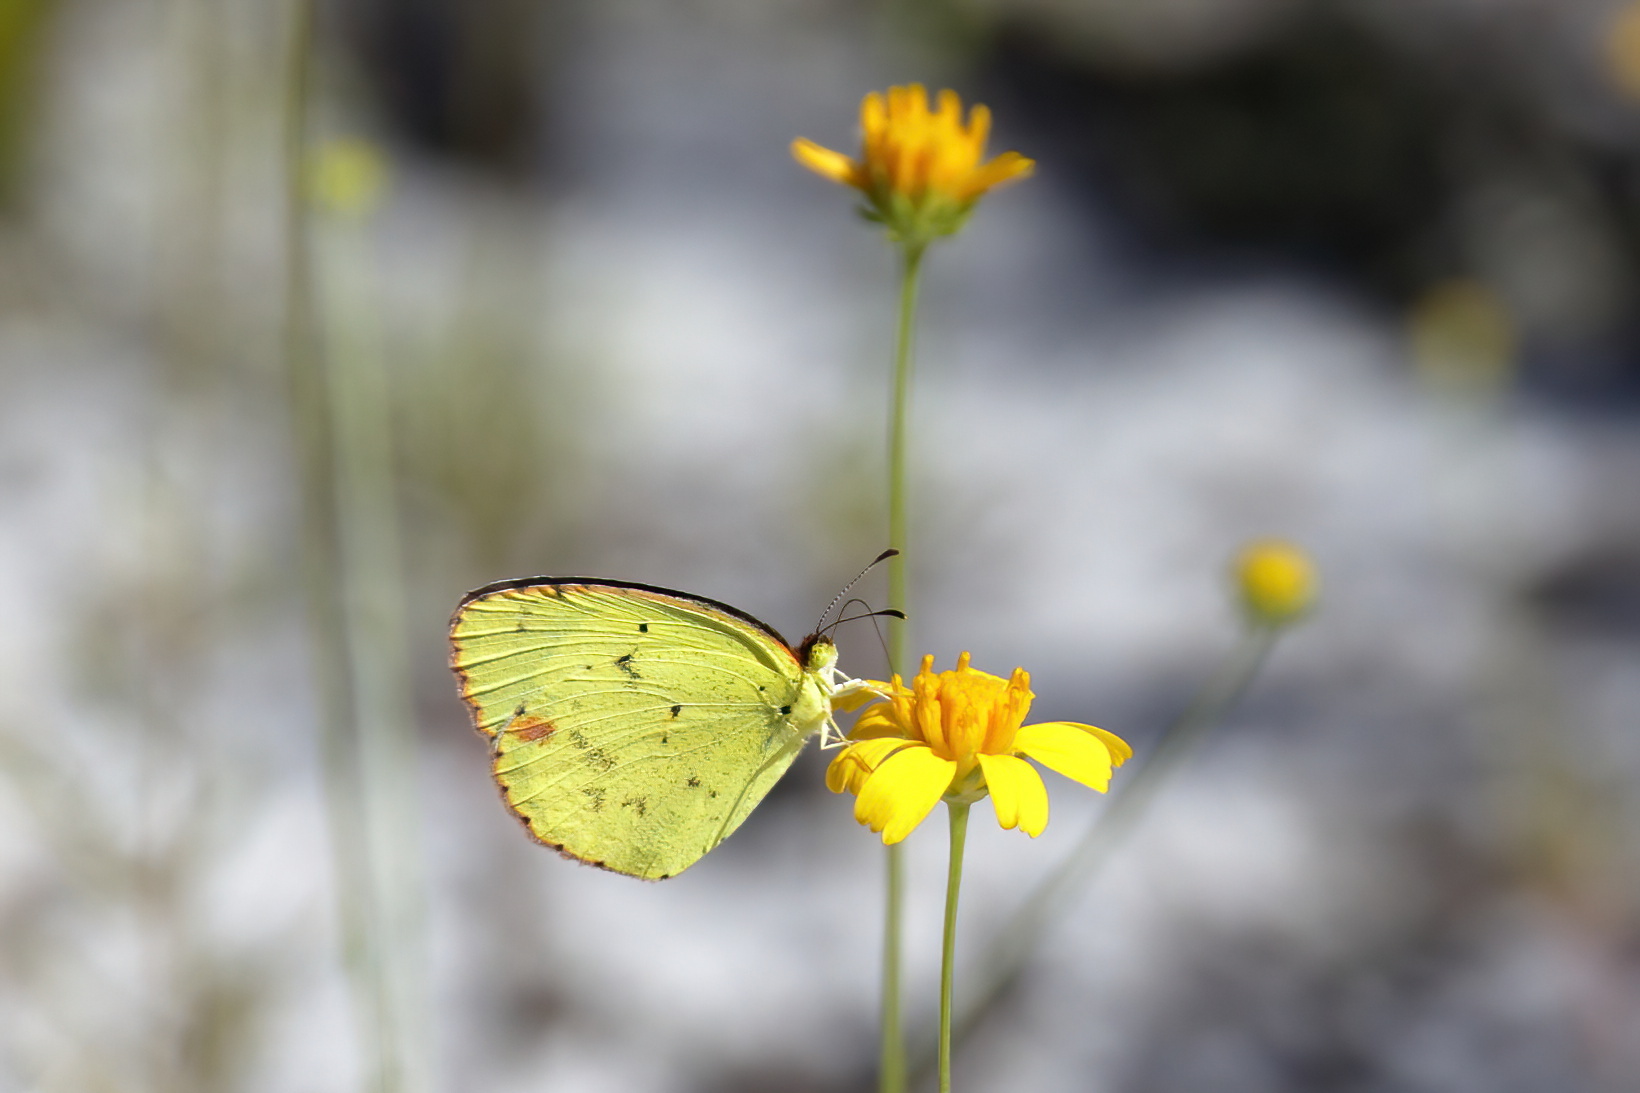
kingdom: Animalia
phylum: Arthropoda
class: Insecta
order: Lepidoptera
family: Pieridae
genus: Pyrisitia
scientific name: Pyrisitia lisa
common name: Little yellow
